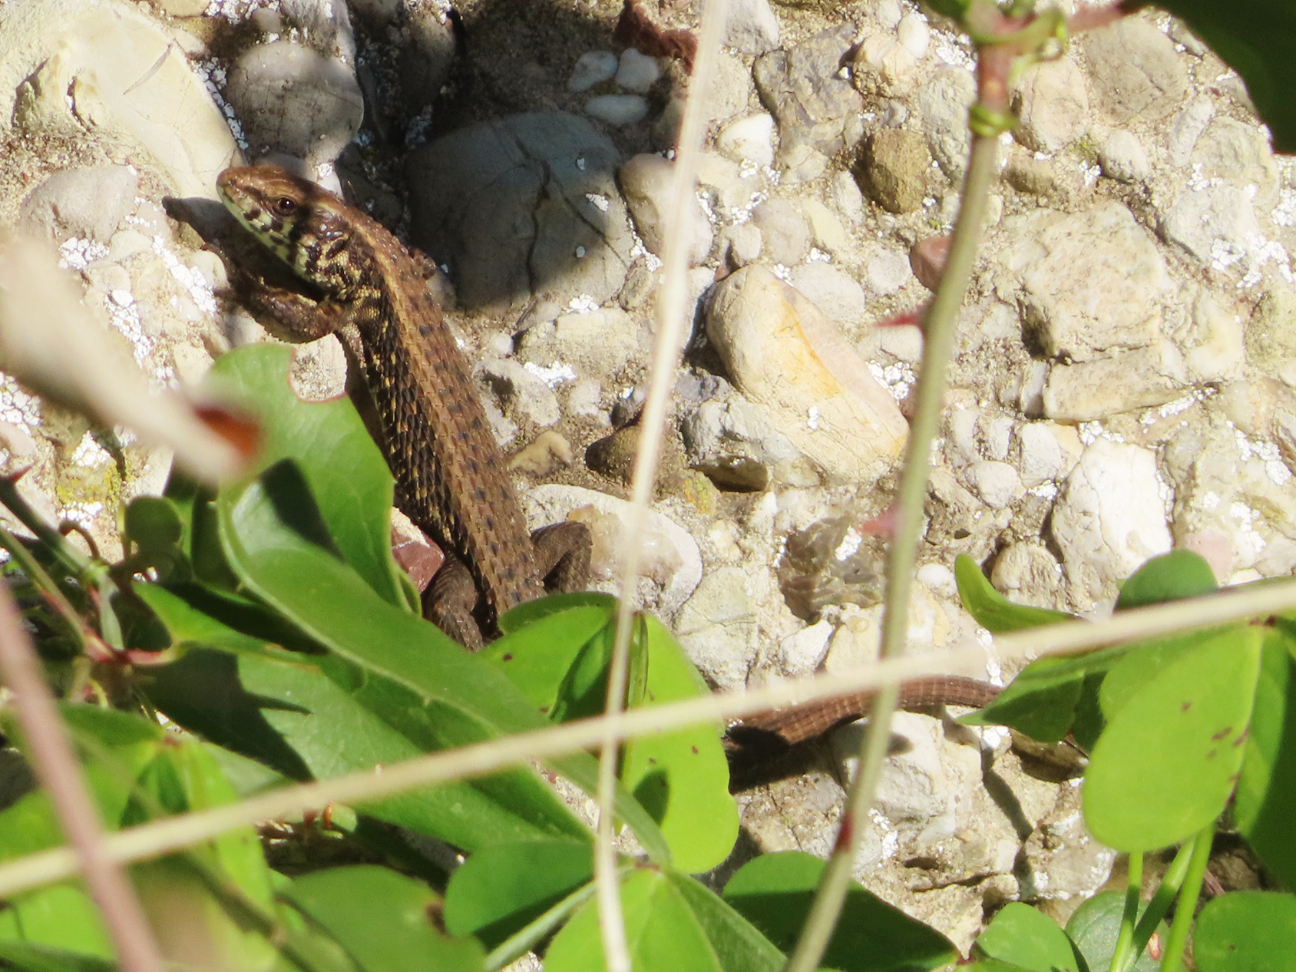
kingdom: Animalia
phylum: Chordata
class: Squamata
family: Lacertidae
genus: Algyroides
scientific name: Algyroides moreoticus
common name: Greek algyroides
